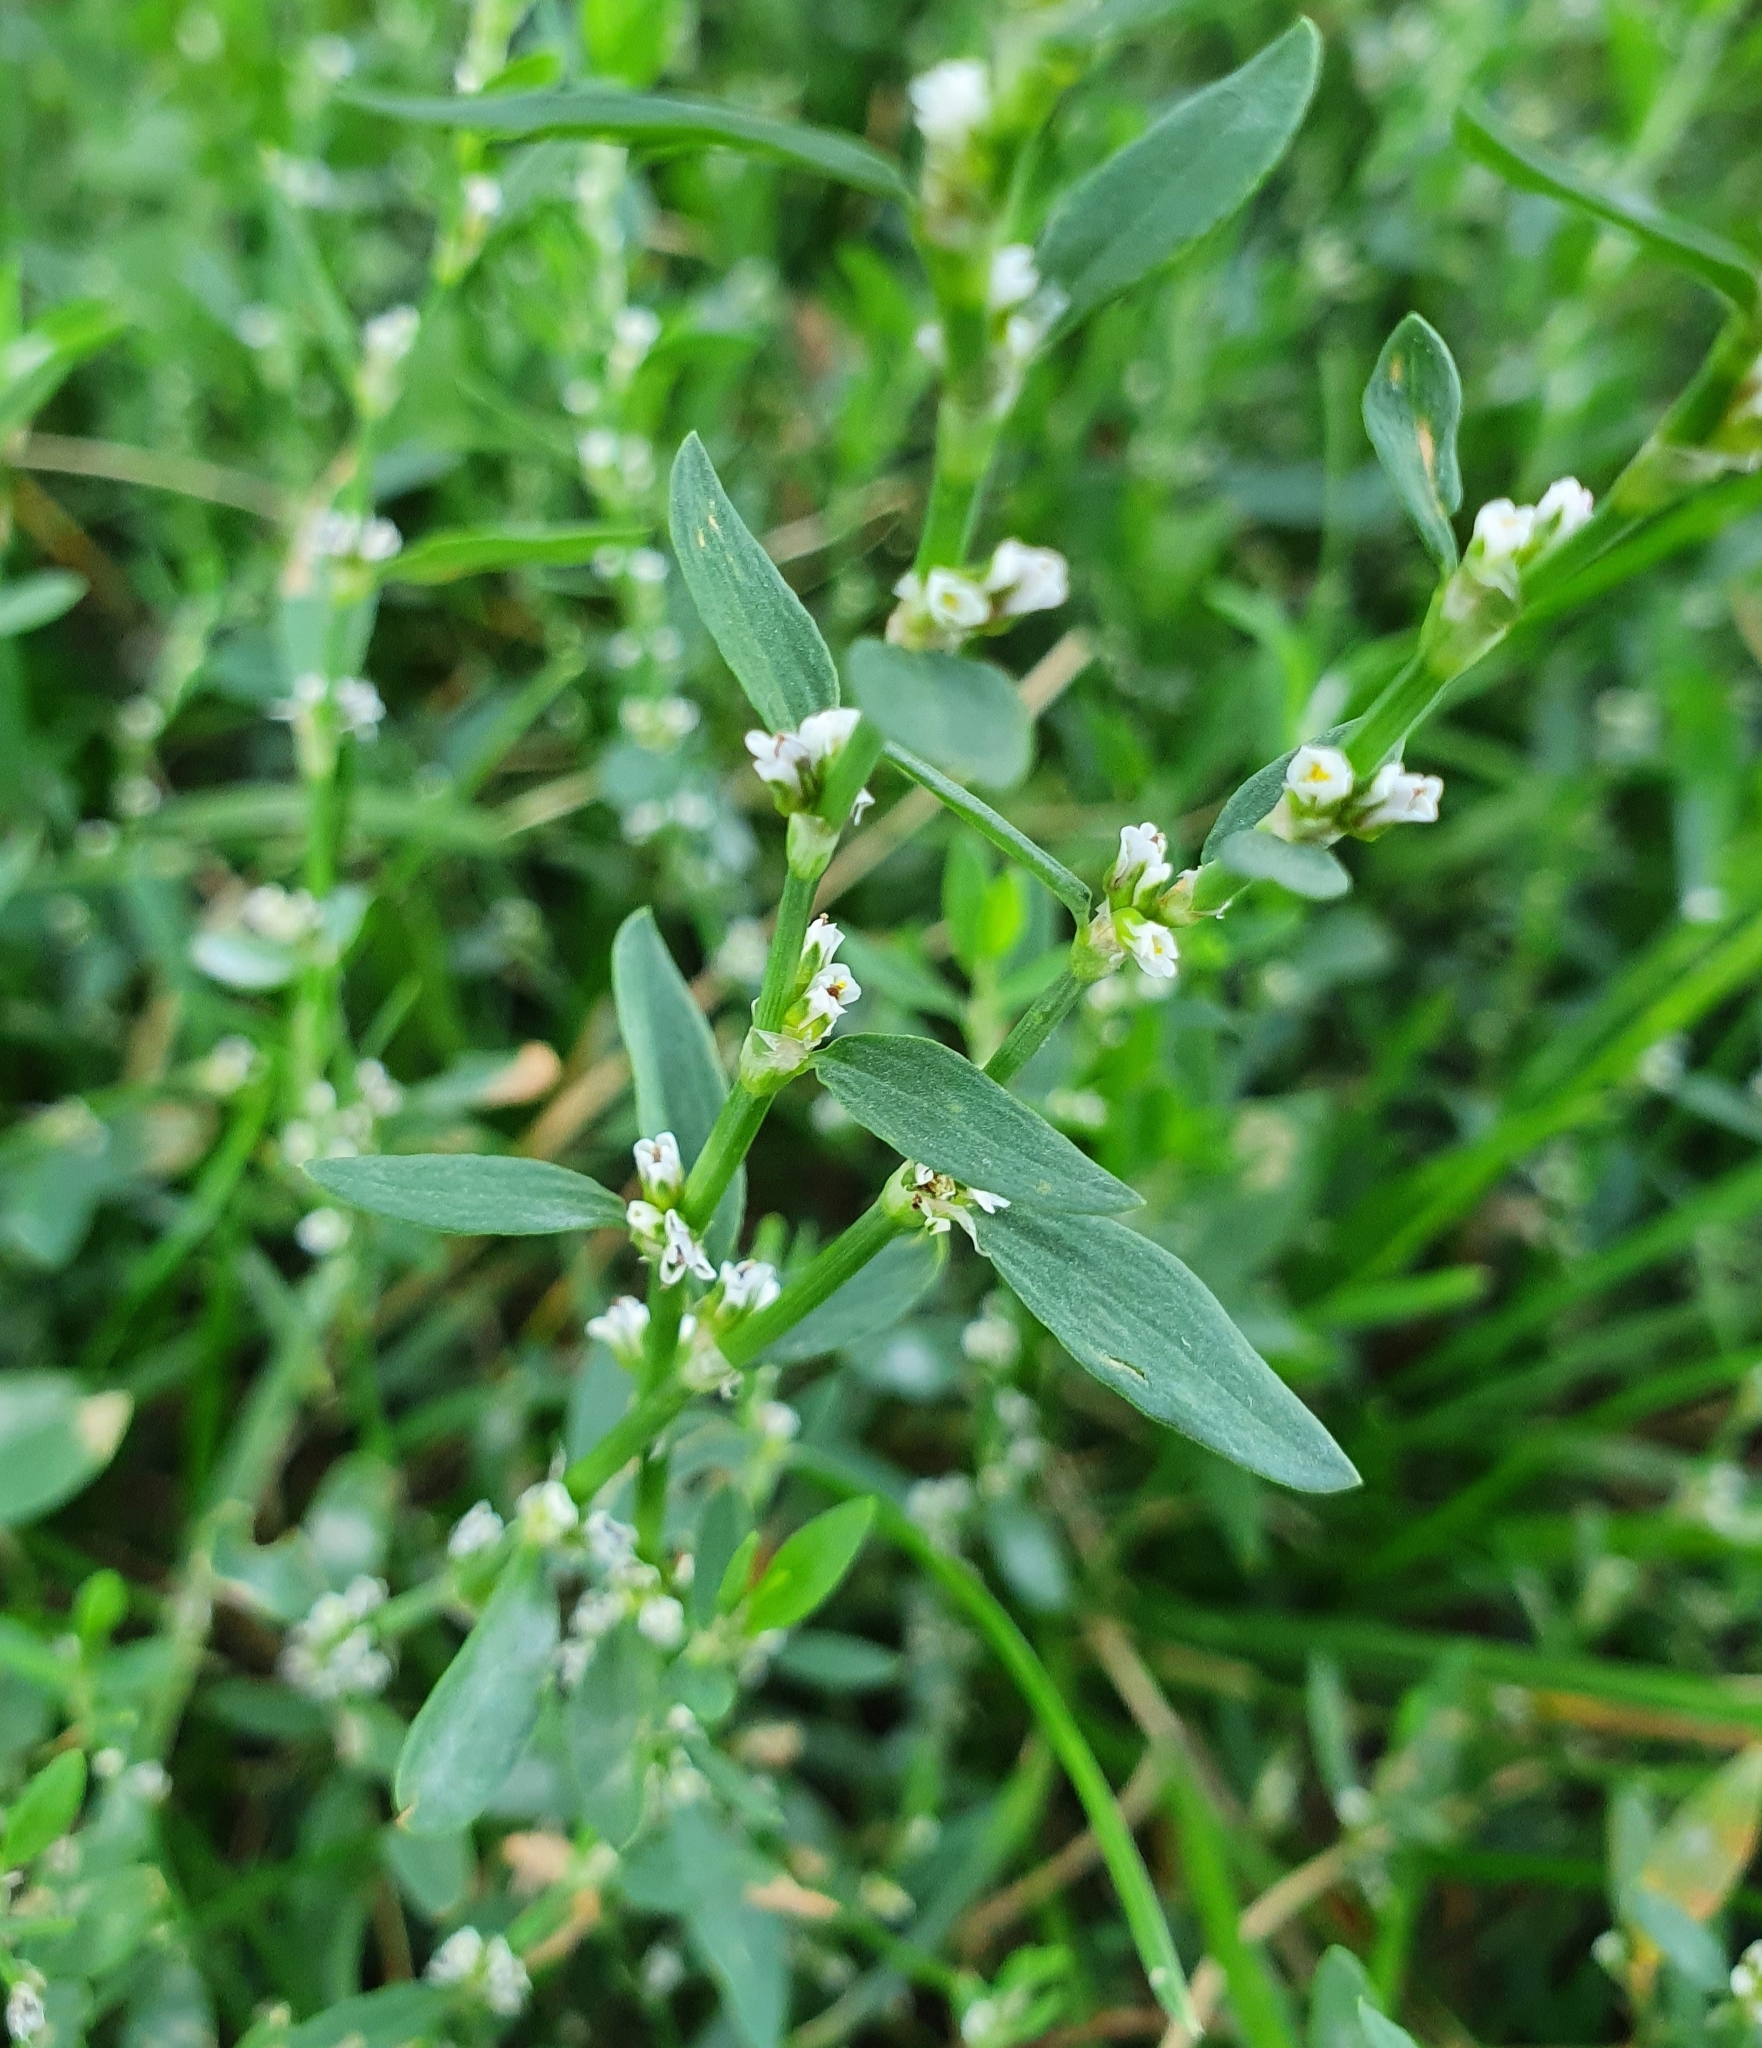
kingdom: Plantae
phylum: Tracheophyta
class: Magnoliopsida
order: Caryophyllales
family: Polygonaceae
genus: Polygonum
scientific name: Polygonum
